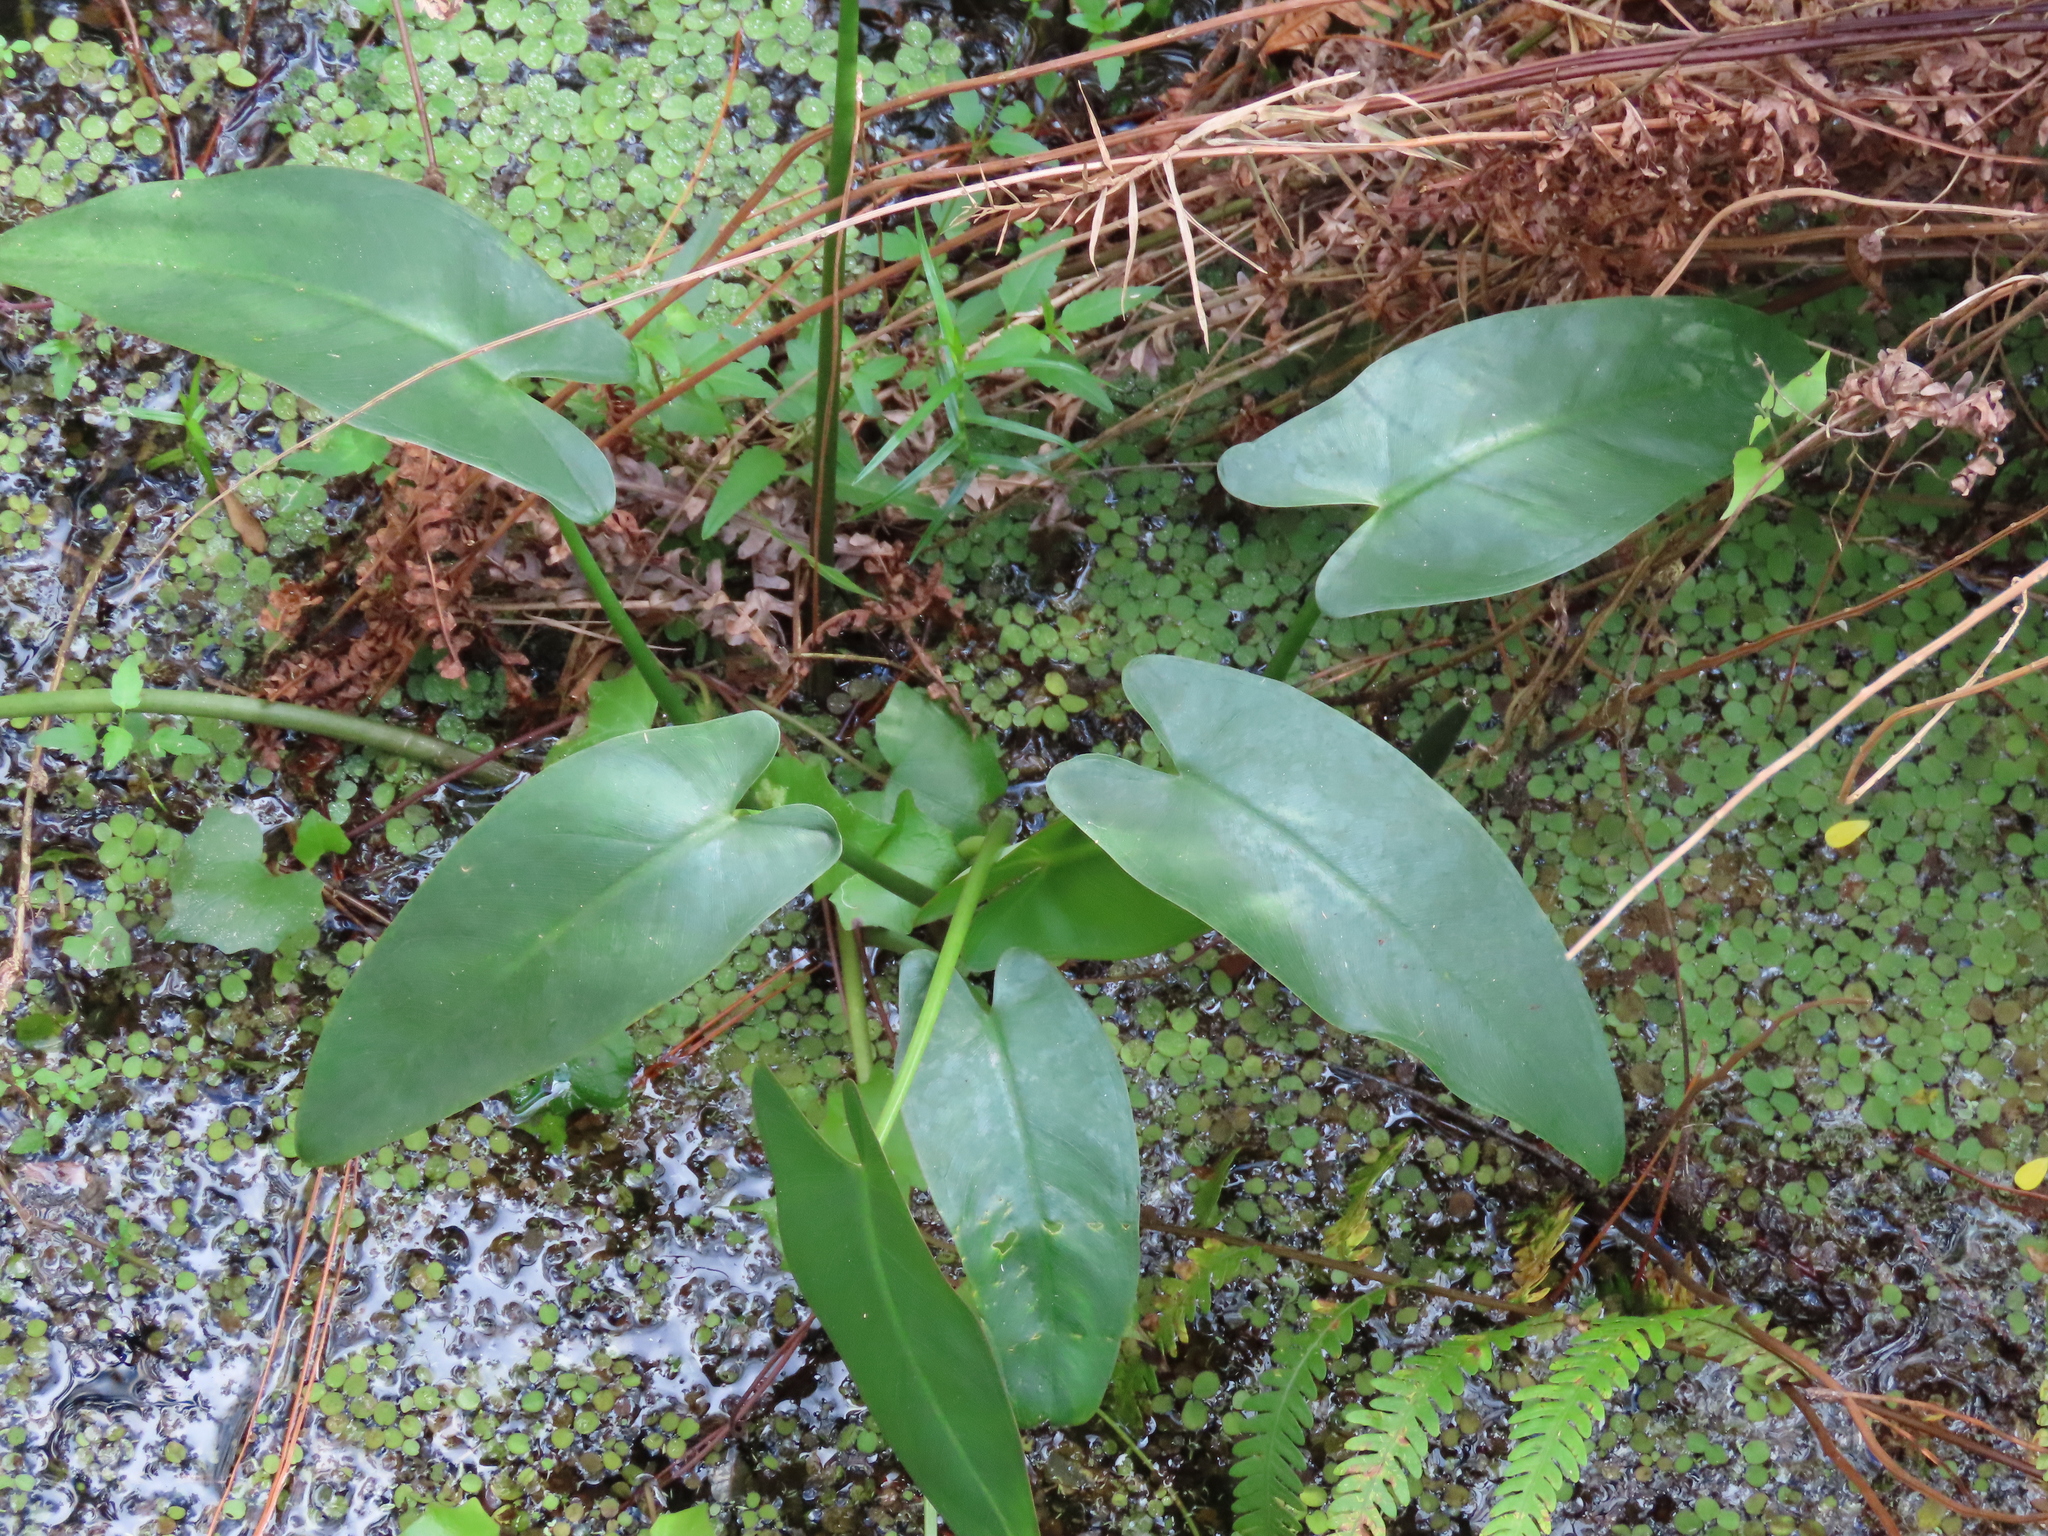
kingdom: Plantae
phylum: Tracheophyta
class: Liliopsida
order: Alismatales
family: Araceae
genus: Peltandra
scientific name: Peltandra virginica
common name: Arrow arum
